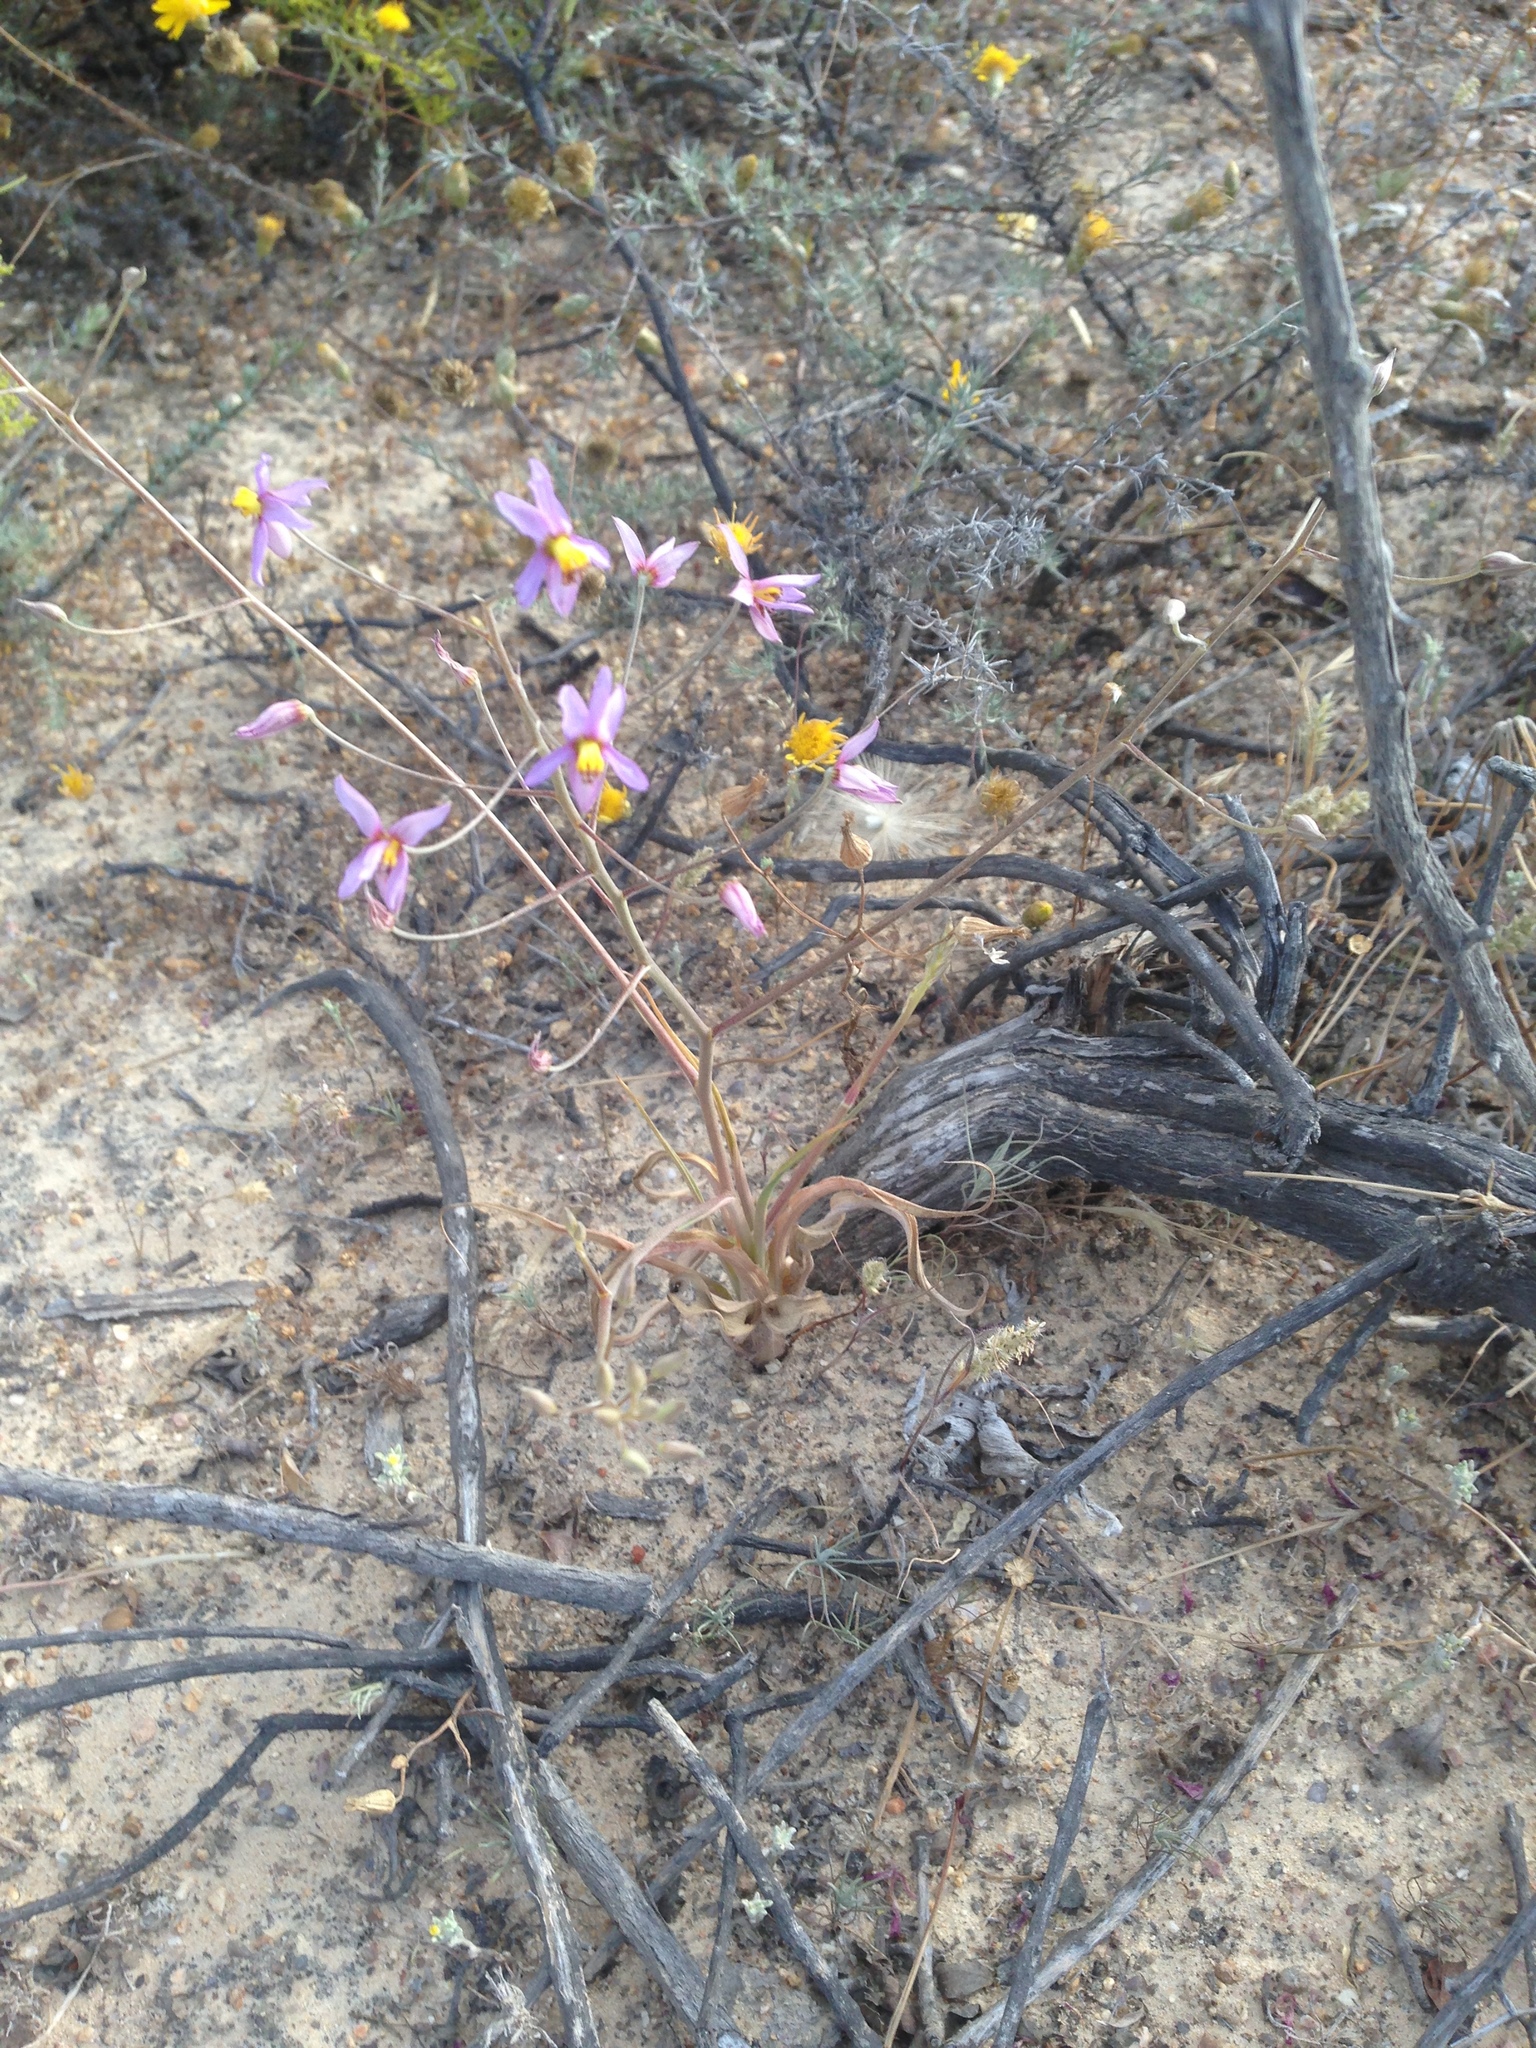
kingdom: Plantae
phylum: Tracheophyta
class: Liliopsida
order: Asparagales
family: Tecophilaeaceae
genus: Cyanella
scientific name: Cyanella hyacinthoides
